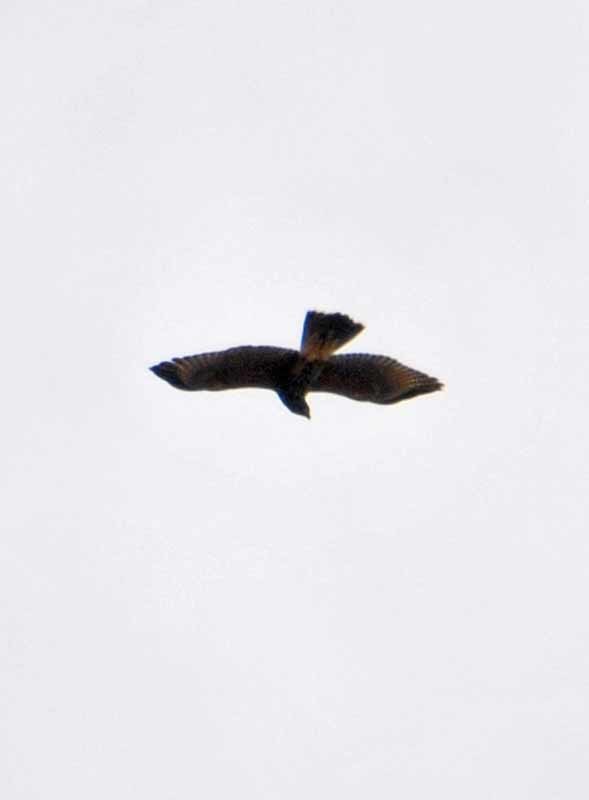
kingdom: Animalia
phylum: Chordata
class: Aves
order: Accipitriformes
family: Accipitridae
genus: Parabuteo
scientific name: Parabuteo unicinctus
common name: Harris's hawk
